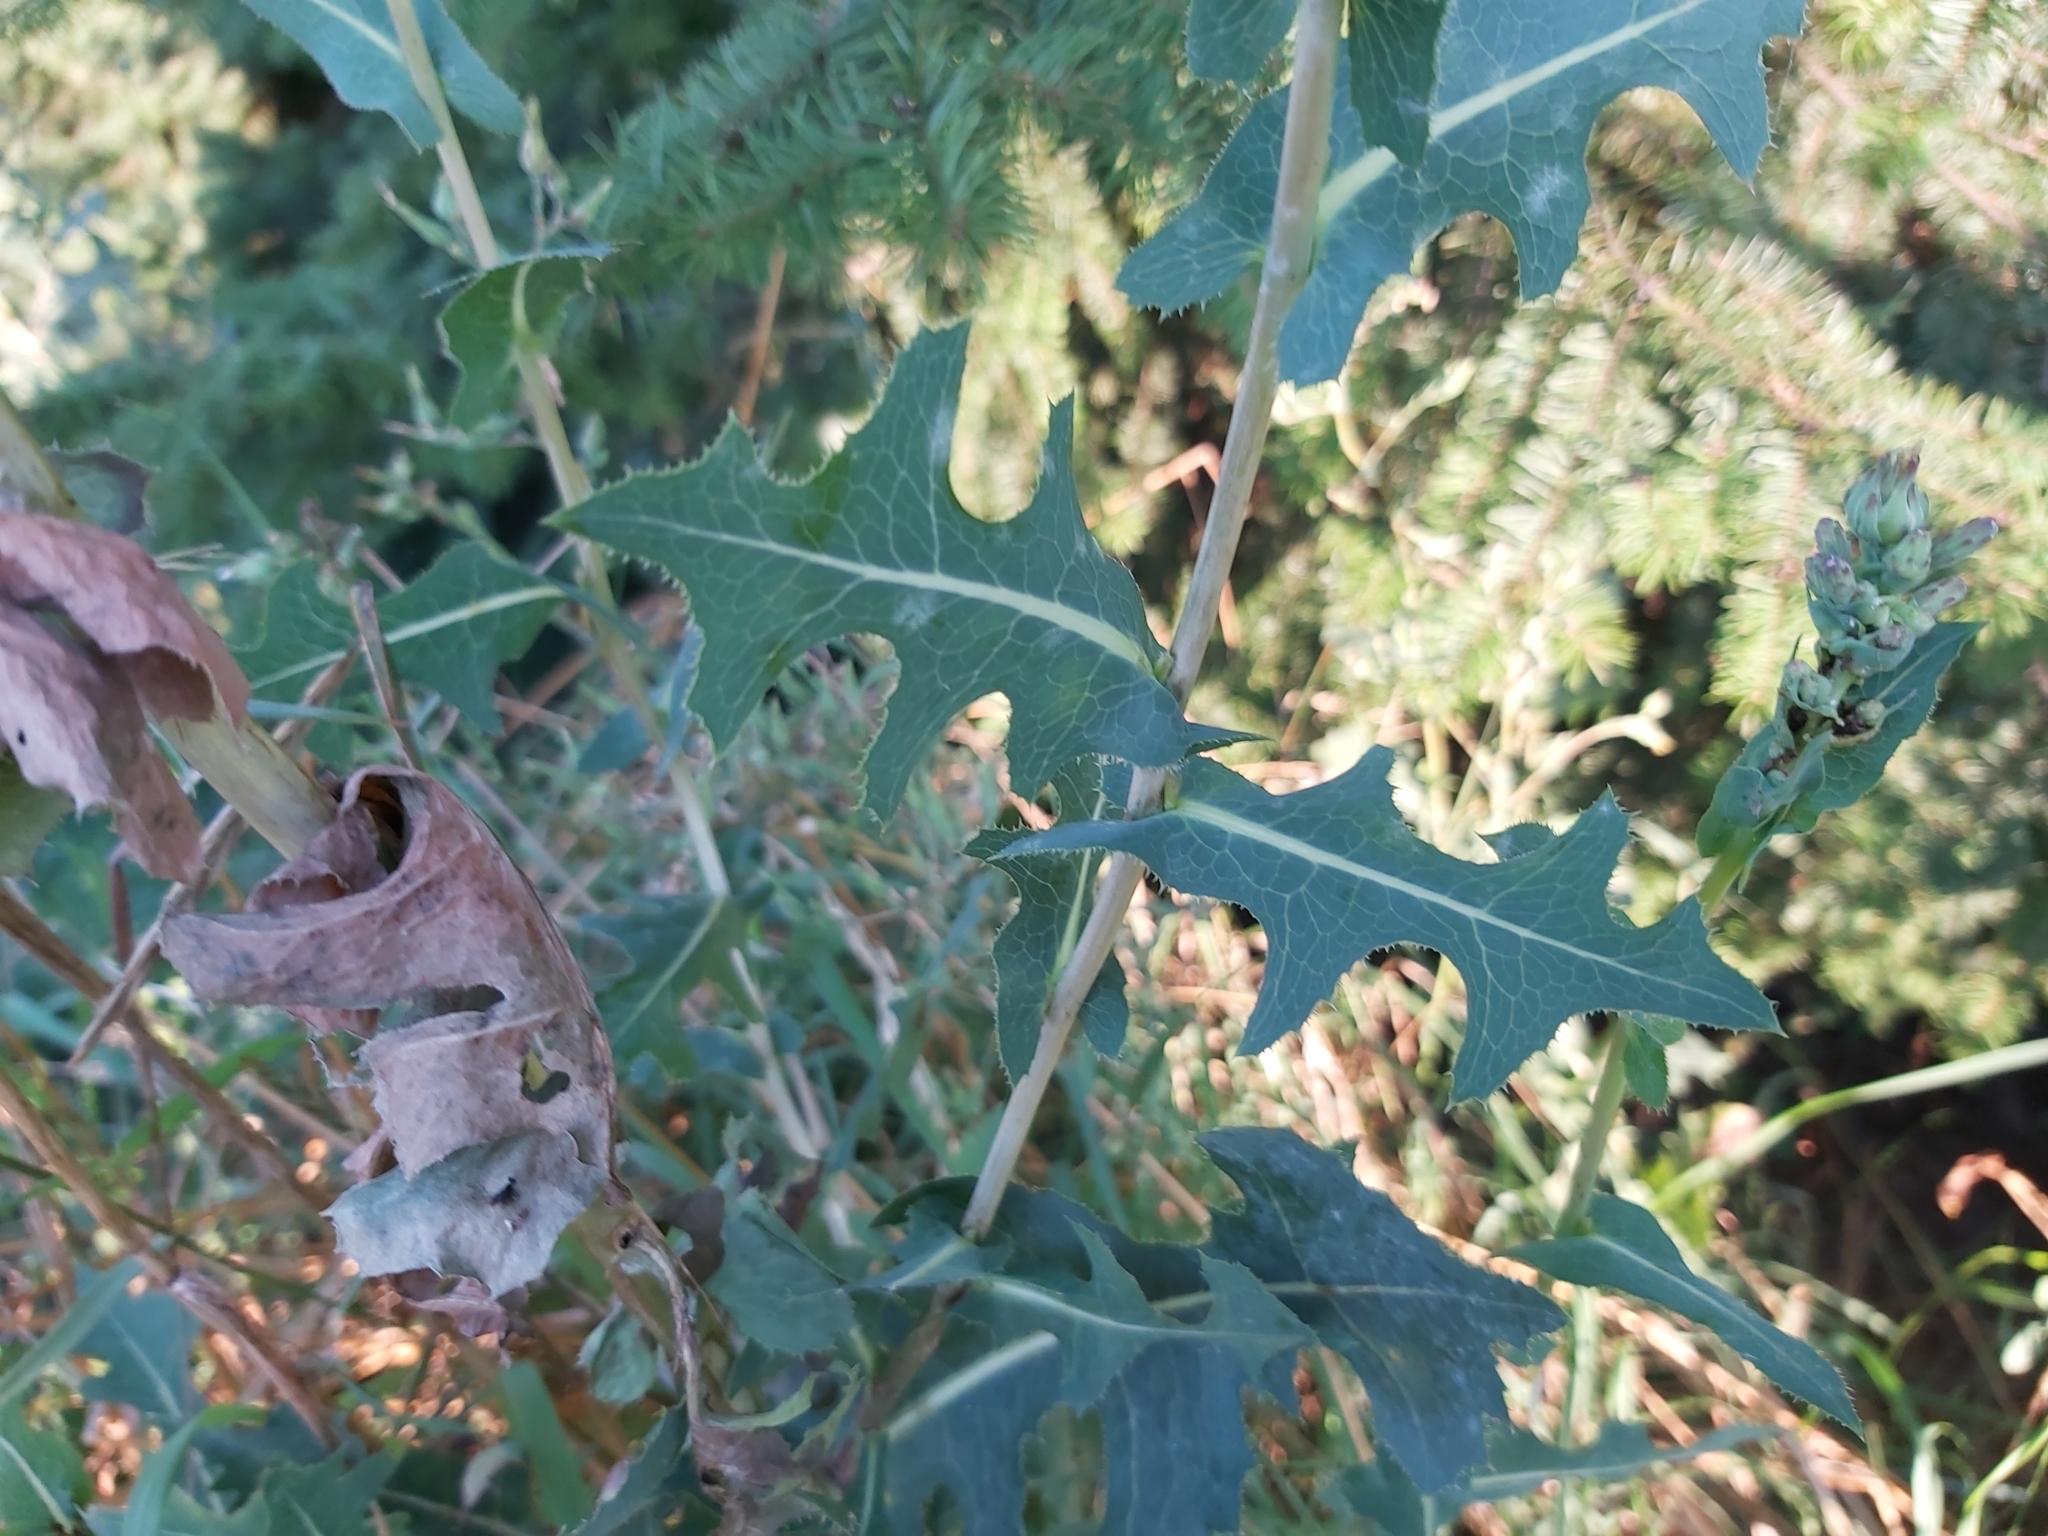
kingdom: Plantae
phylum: Tracheophyta
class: Magnoliopsida
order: Asterales
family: Asteraceae
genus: Lactuca
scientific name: Lactuca serriola
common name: Prickly lettuce
